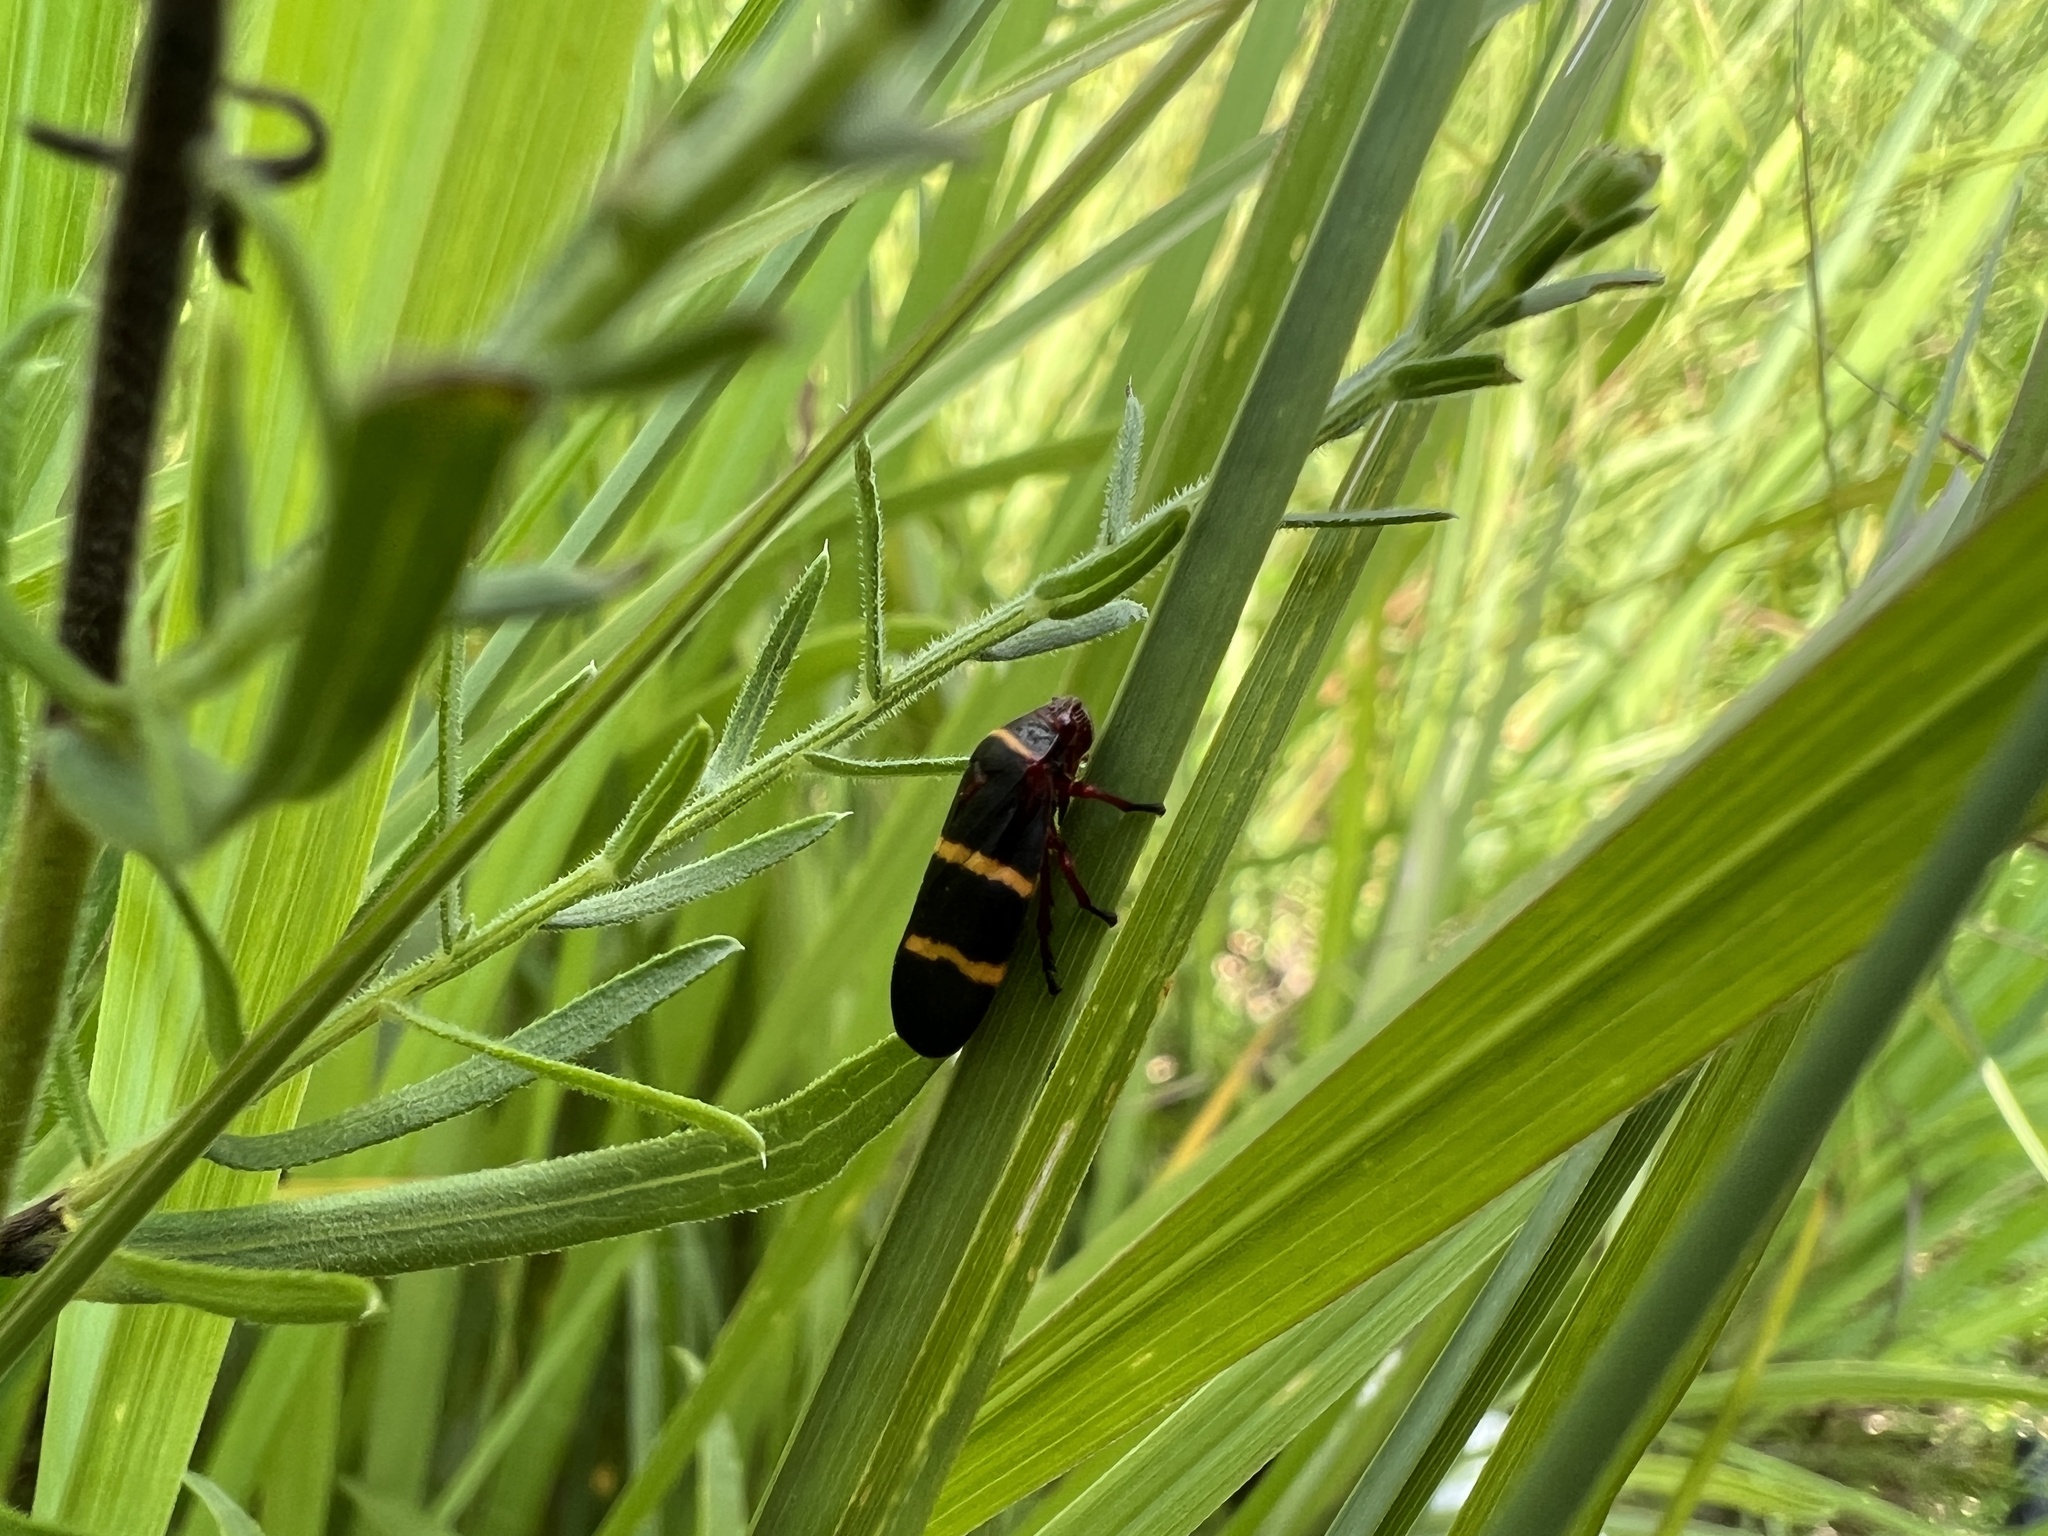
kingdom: Animalia
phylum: Arthropoda
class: Insecta
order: Hemiptera
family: Cercopidae
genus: Prosapia
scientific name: Prosapia bicincta
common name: Twolined spittlebug
